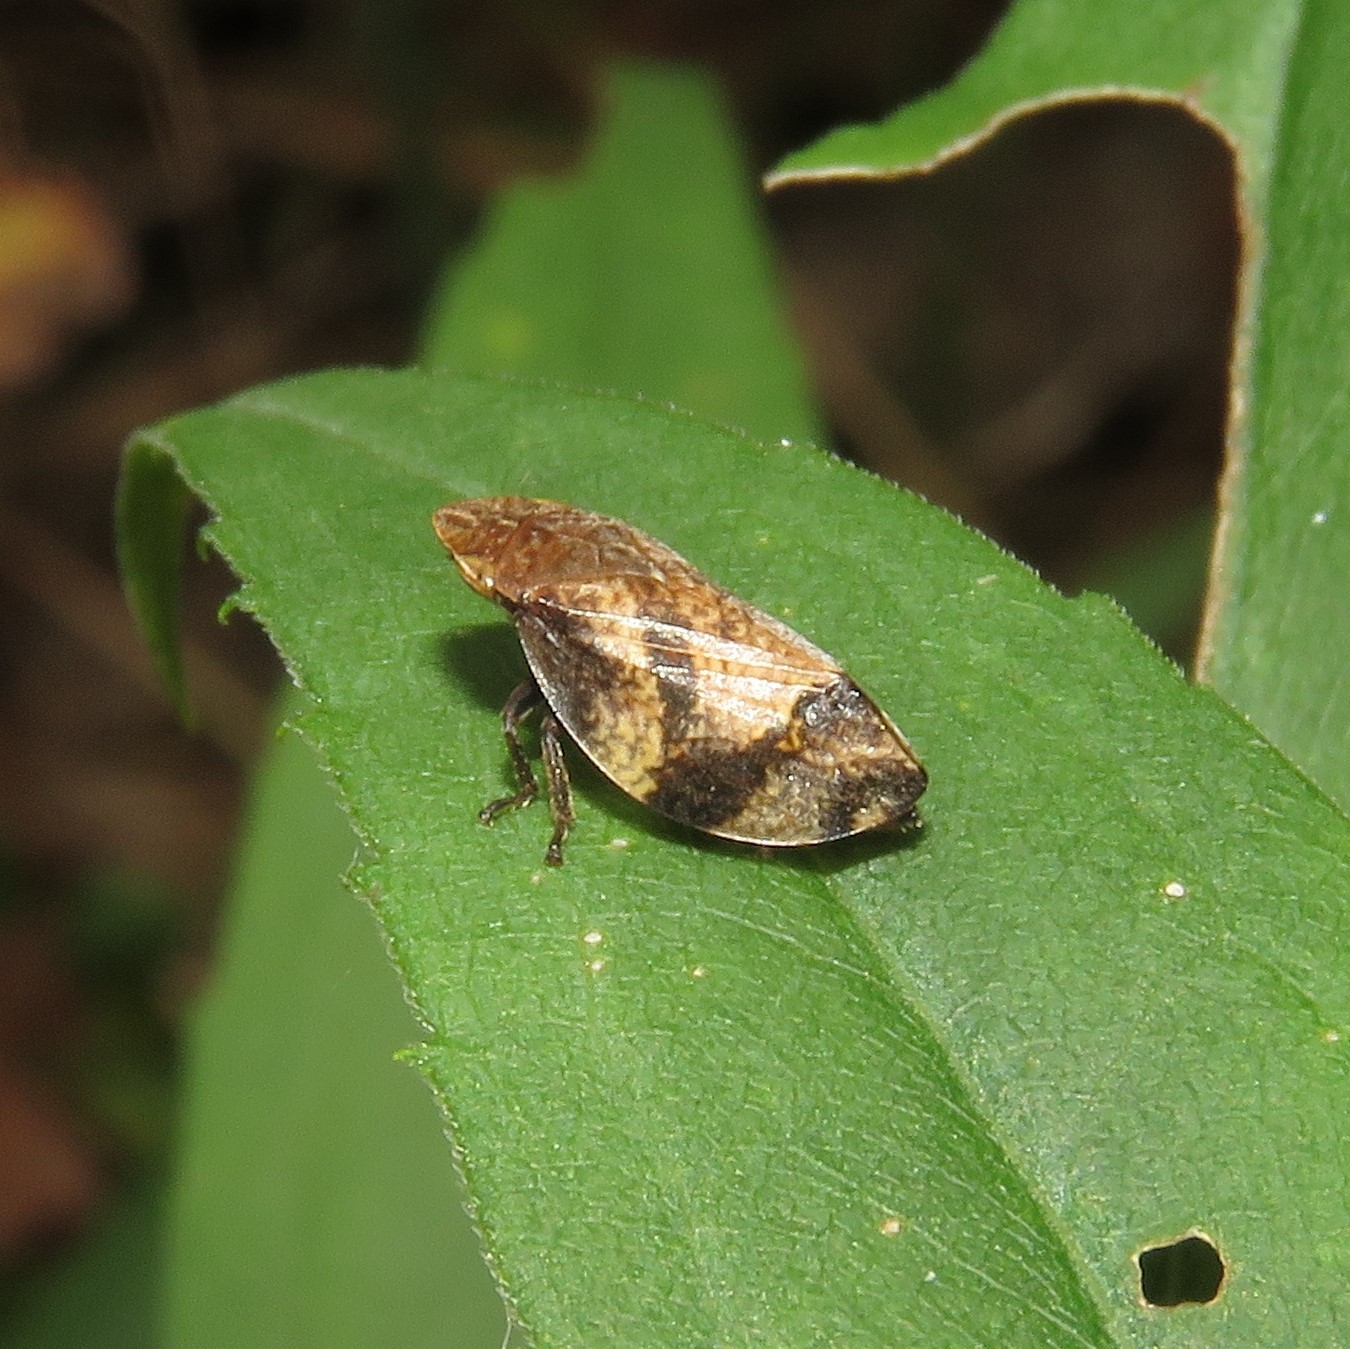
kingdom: Animalia
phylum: Arthropoda
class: Insecta
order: Hemiptera
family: Aphrophoridae
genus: Lepyronia
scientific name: Lepyronia quadrangularis
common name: Diamond-backed spittlebug
